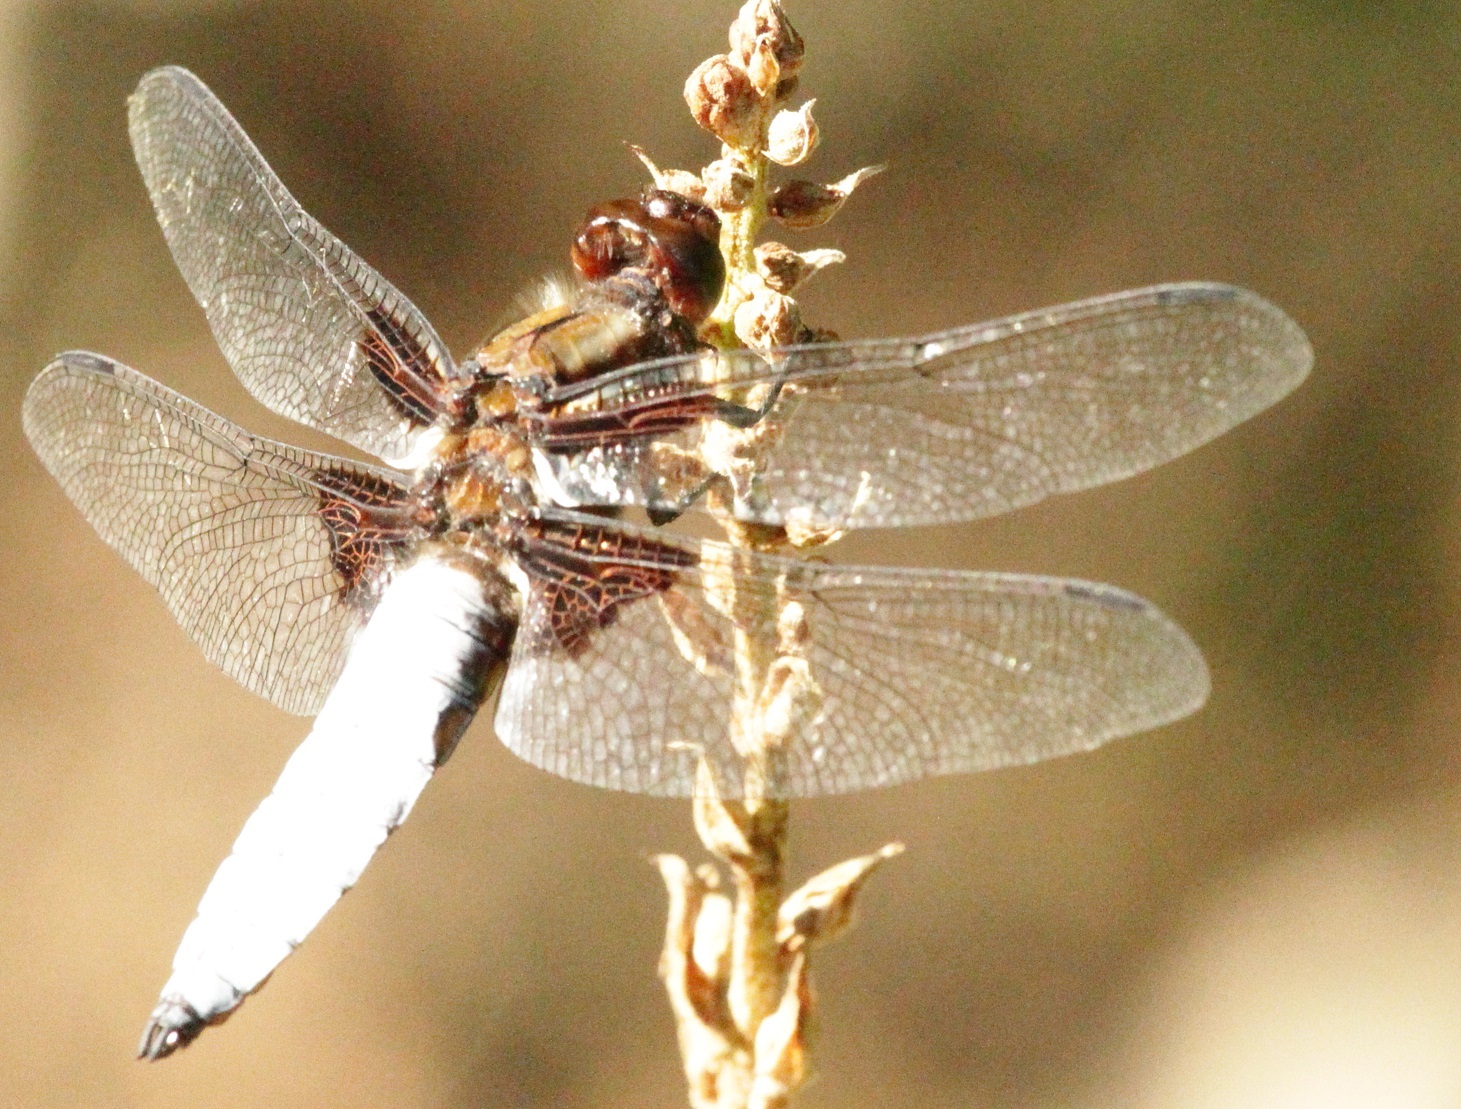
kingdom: Animalia
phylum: Arthropoda
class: Insecta
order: Odonata
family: Libellulidae
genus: Libellula
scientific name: Libellula depressa
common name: Broad-bodied chaser
